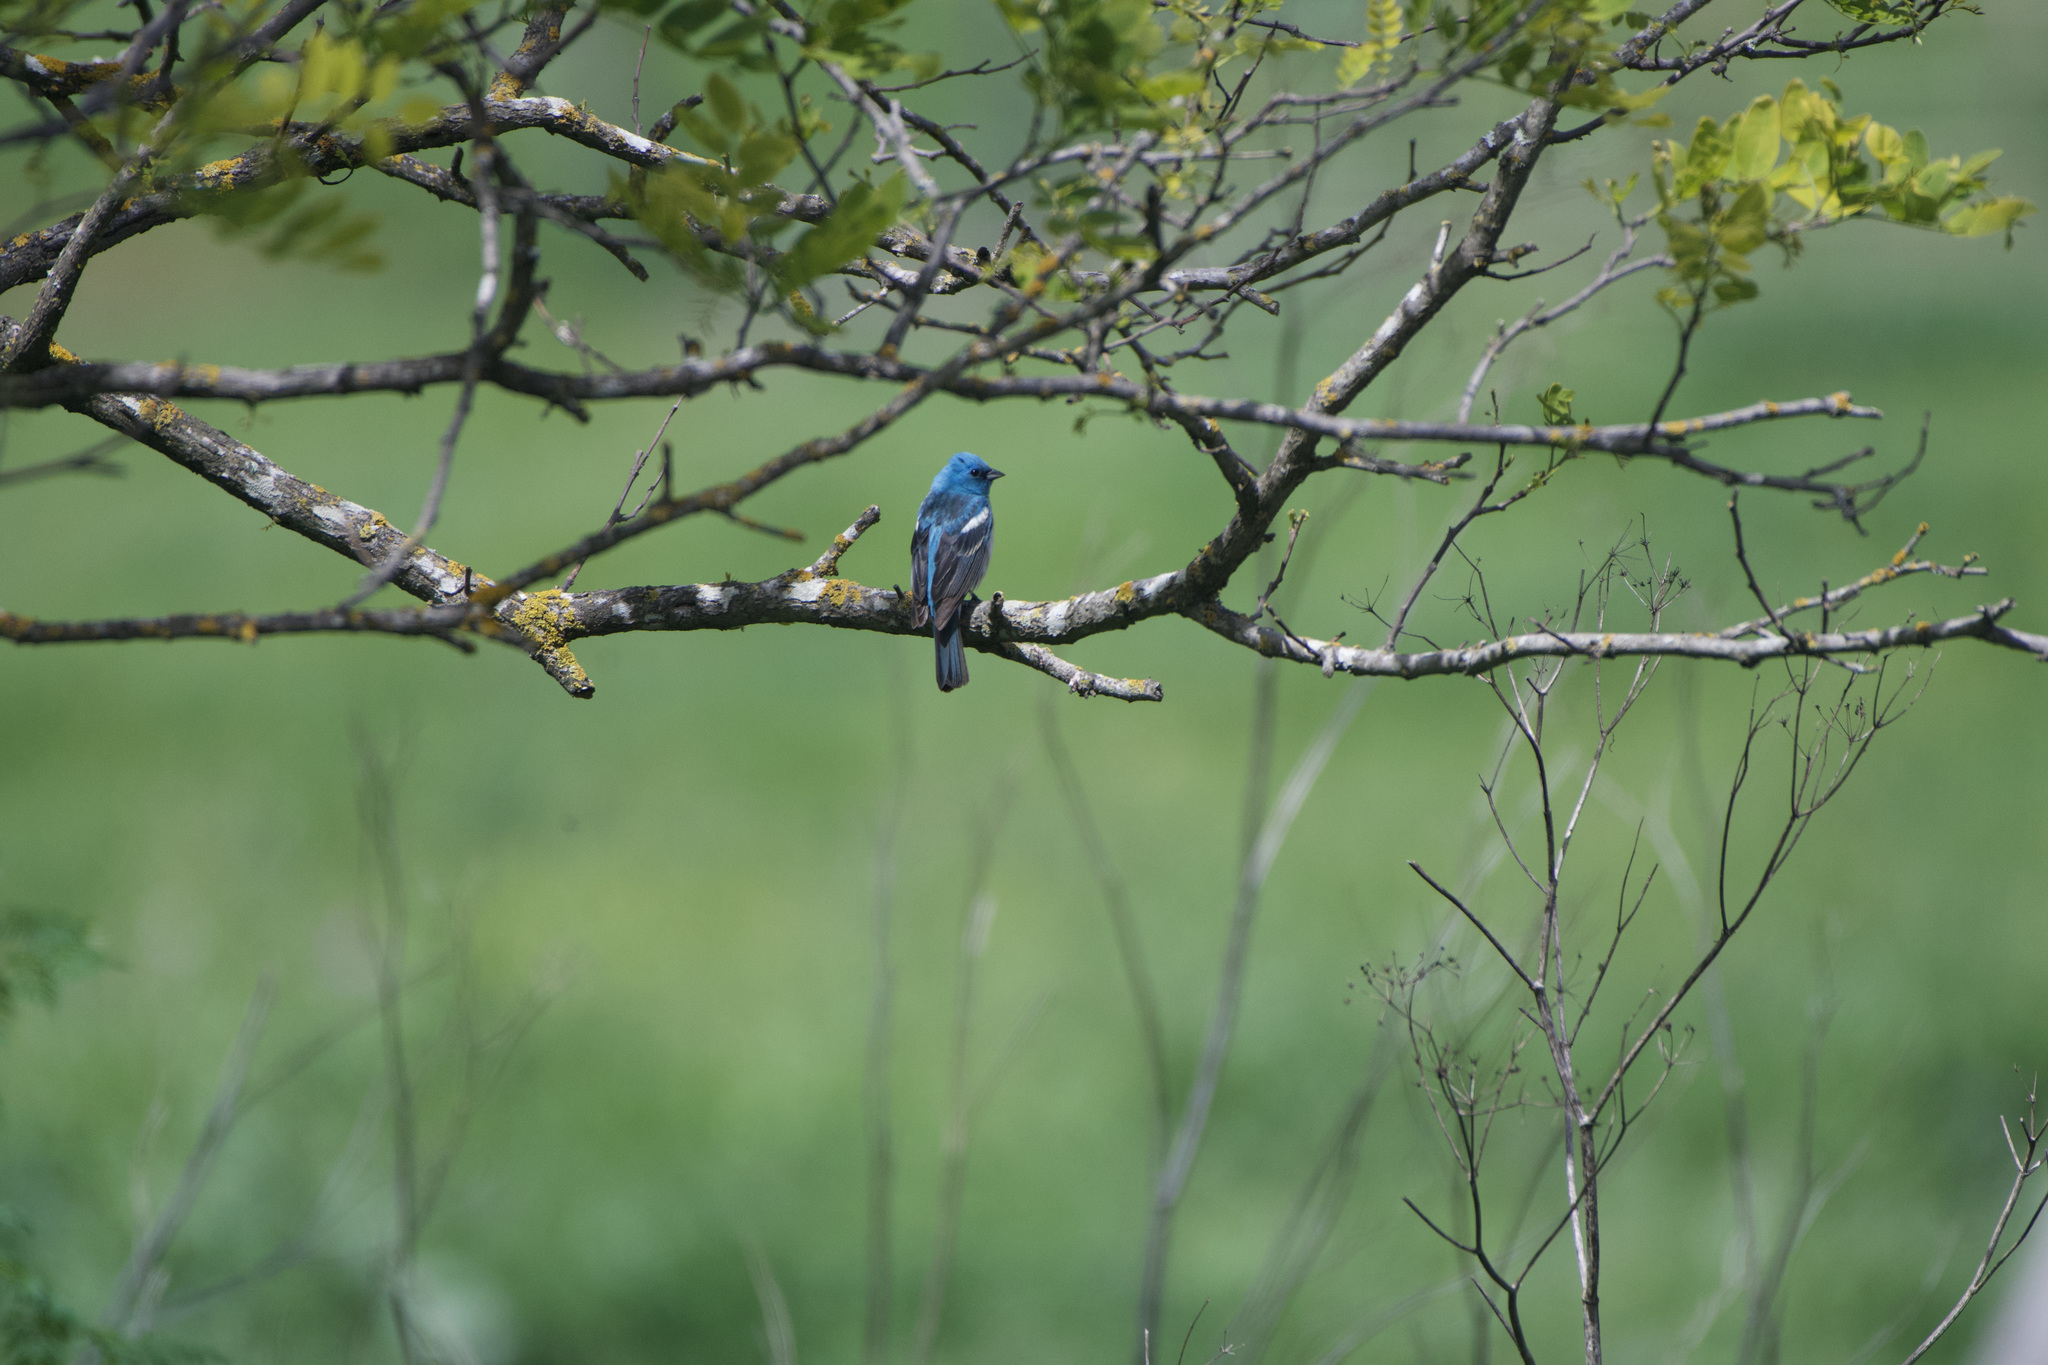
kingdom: Animalia
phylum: Chordata
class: Aves
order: Passeriformes
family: Cardinalidae
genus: Passerina
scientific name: Passerina amoena
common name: Lazuli bunting
